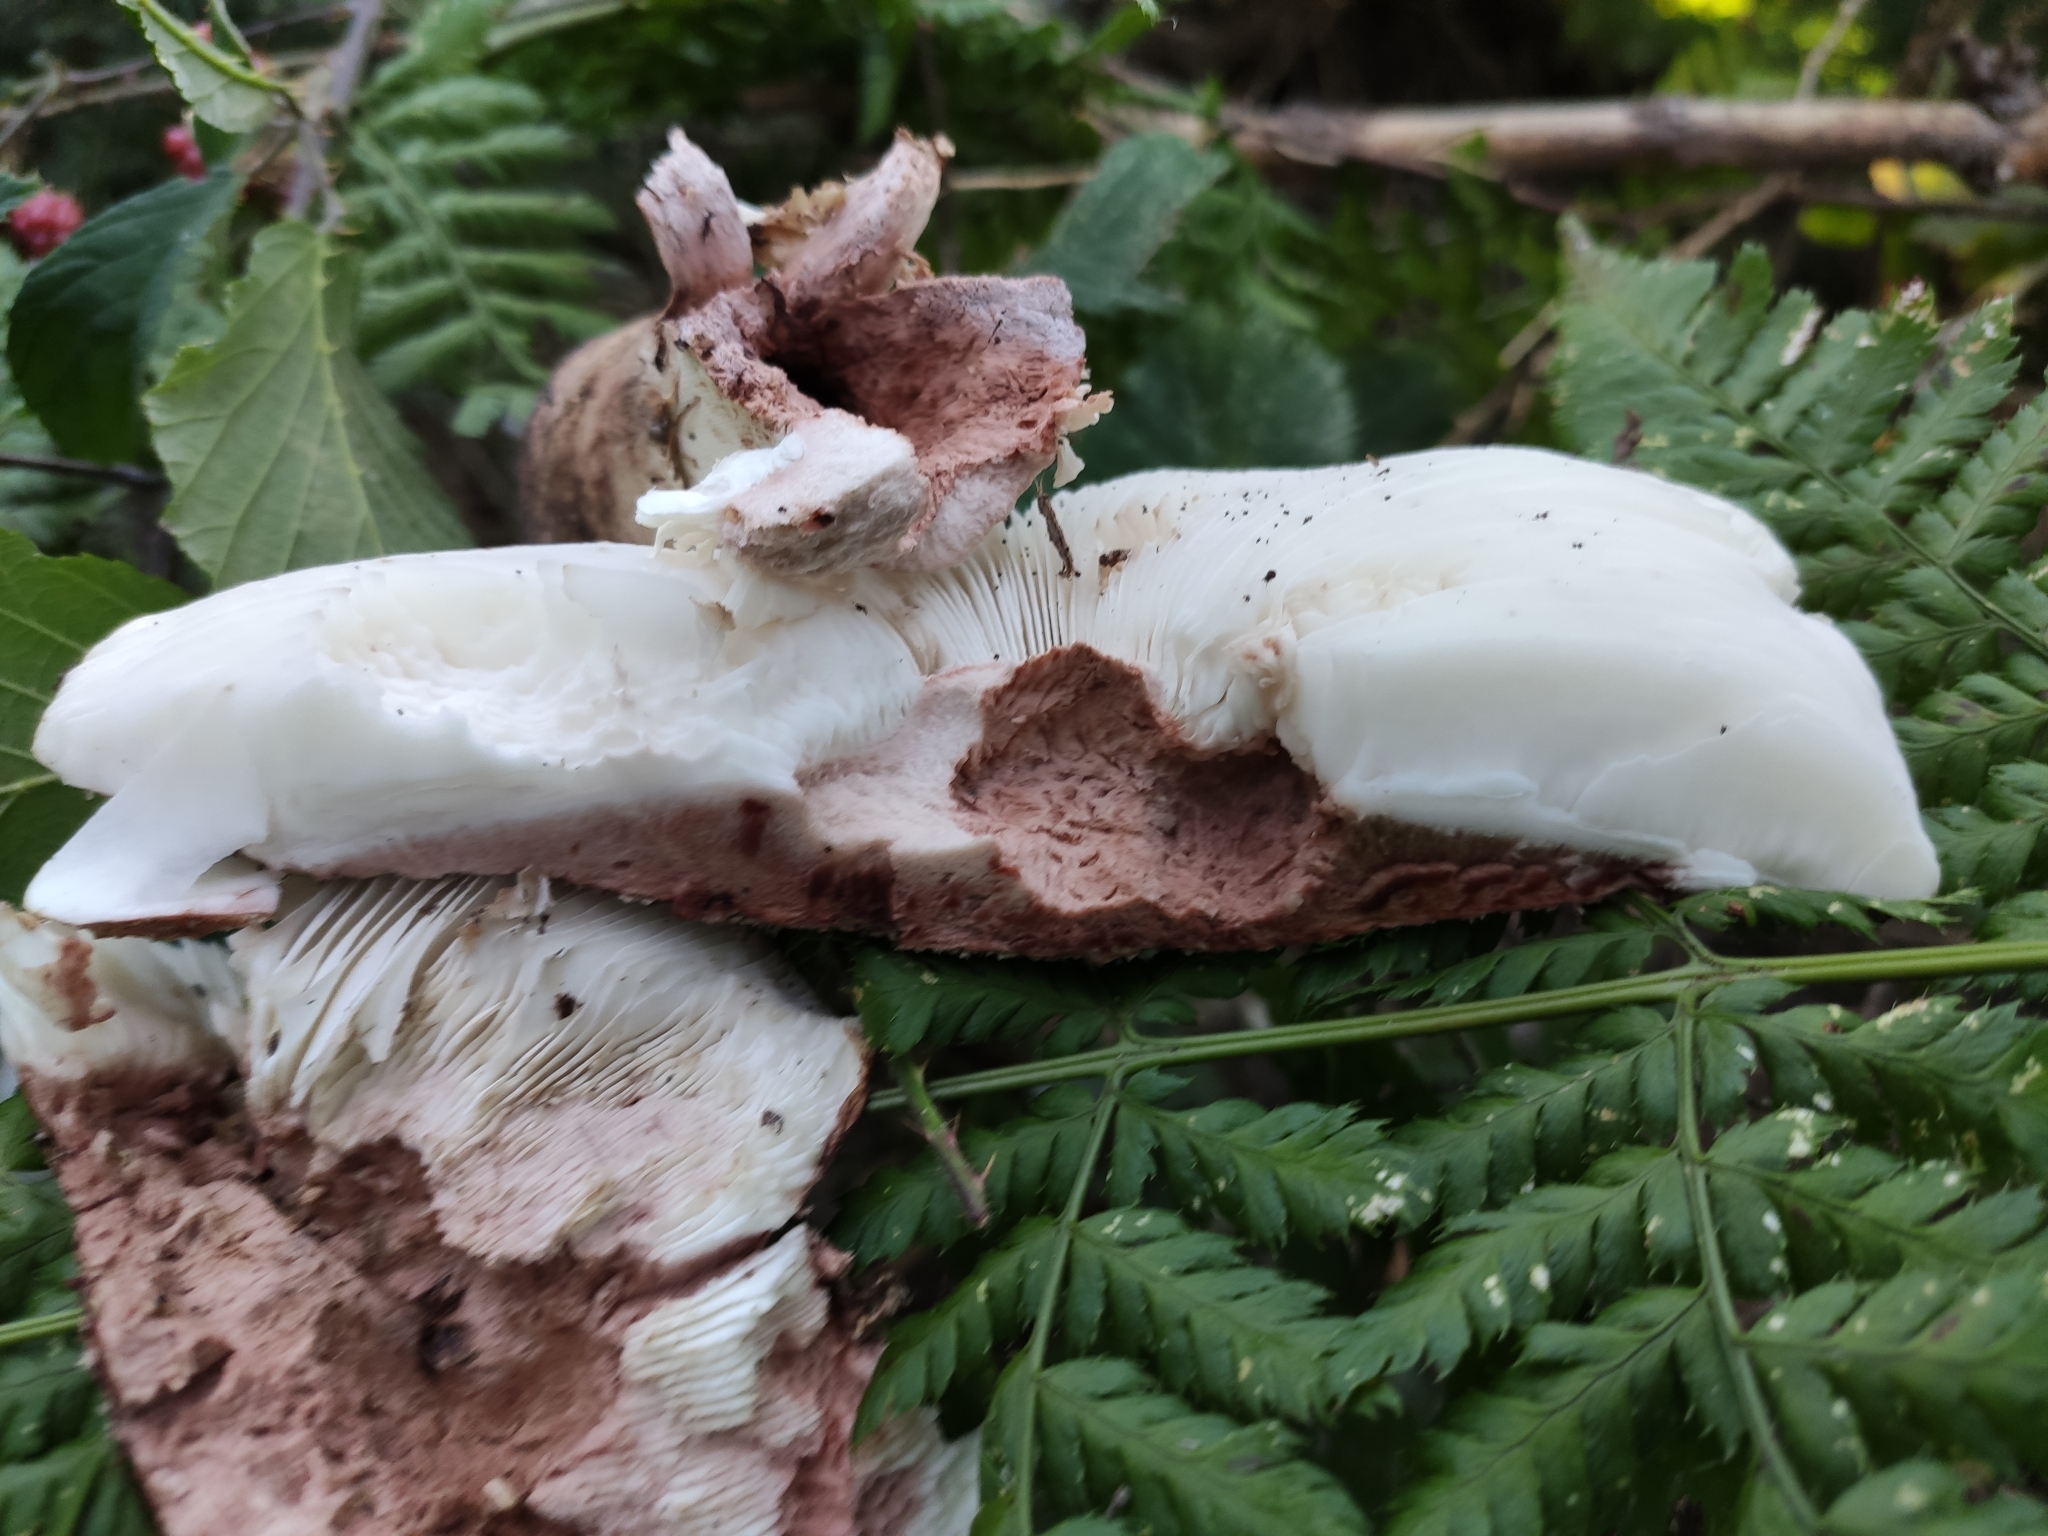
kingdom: Fungi
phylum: Basidiomycota
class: Agaricomycetes
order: Agaricales
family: Amanitaceae
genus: Amanita
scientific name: Amanita rubescens
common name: Blusher
